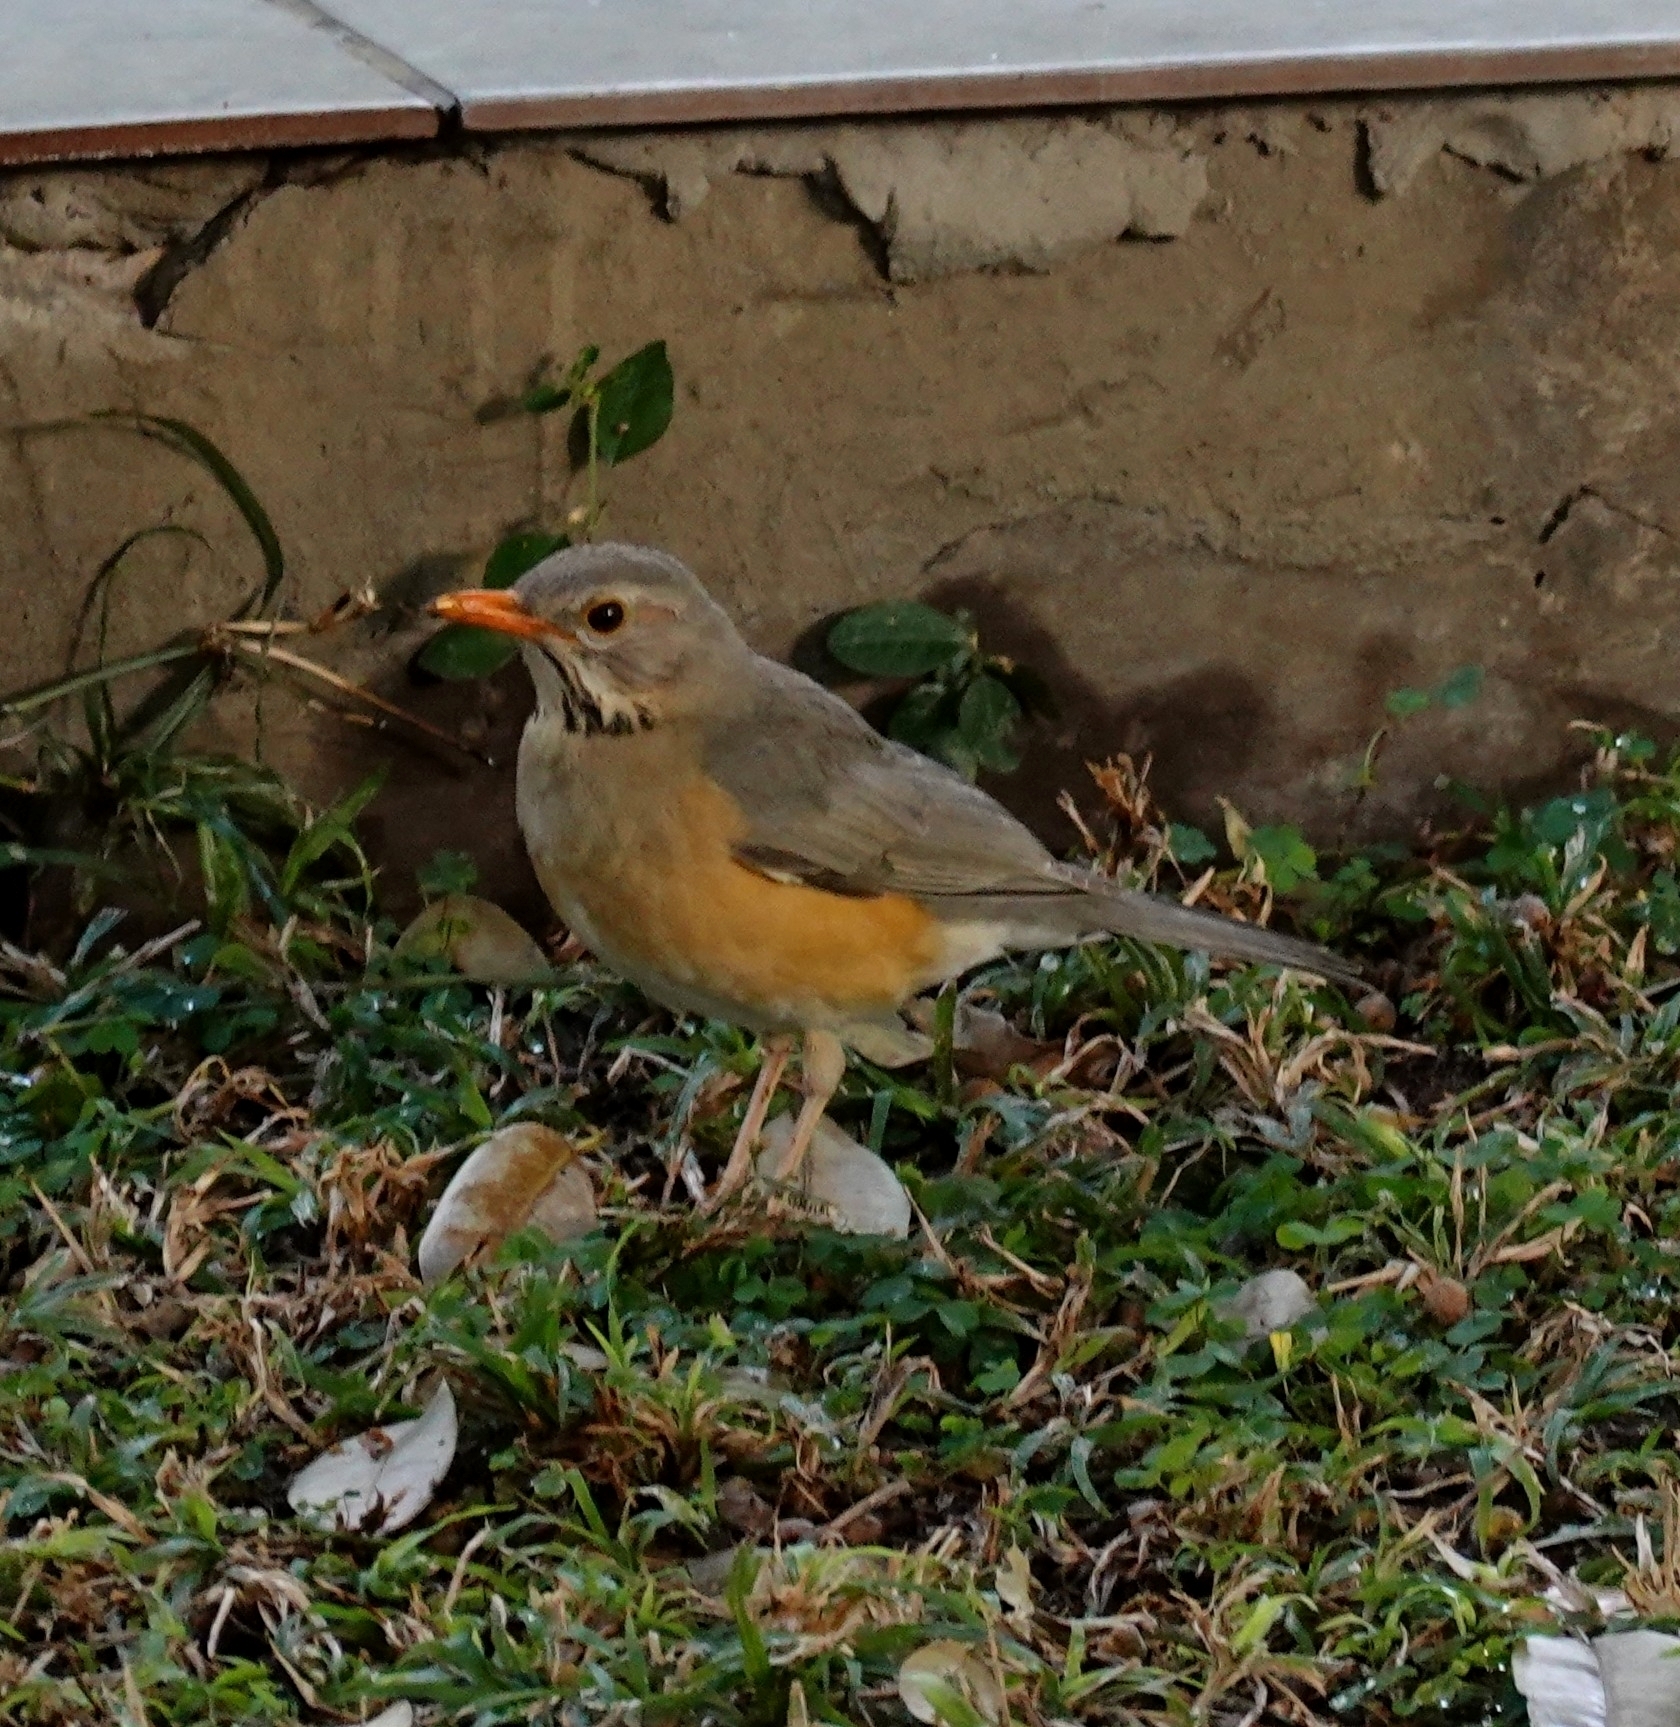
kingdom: Animalia
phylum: Chordata
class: Aves
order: Passeriformes
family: Turdidae
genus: Turdus
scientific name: Turdus libonyana
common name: Kurrichane thrush
